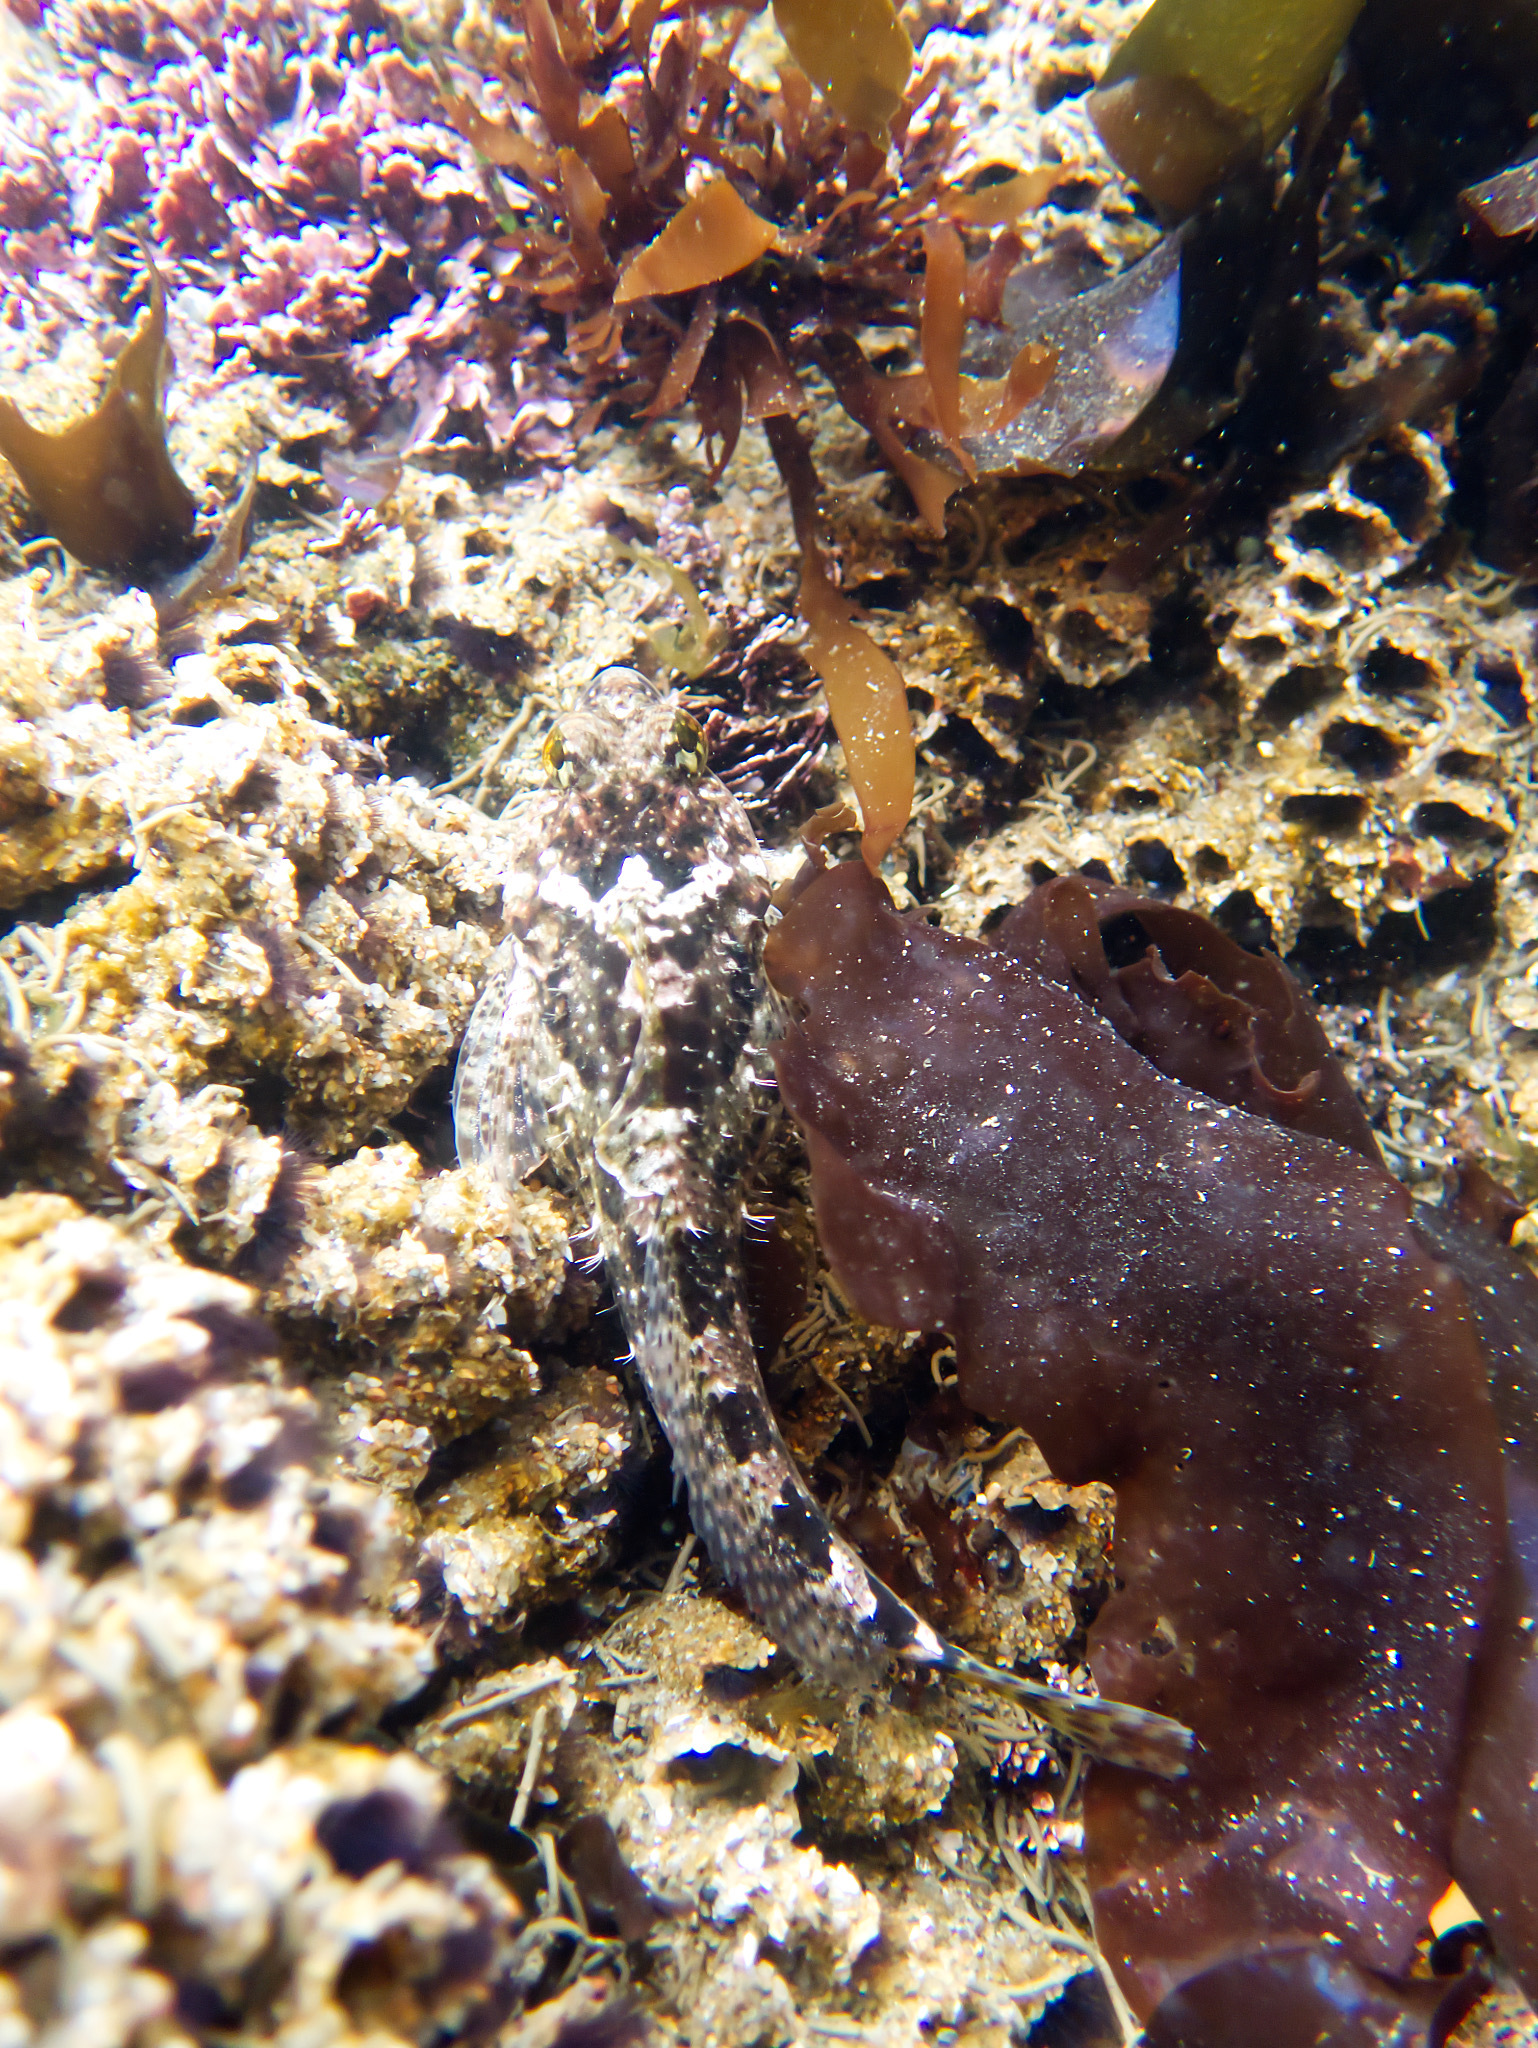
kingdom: Animalia
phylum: Chordata
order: Scorpaeniformes
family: Cottidae
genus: Clinocottus
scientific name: Clinocottus analis
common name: Woolly sculpin
